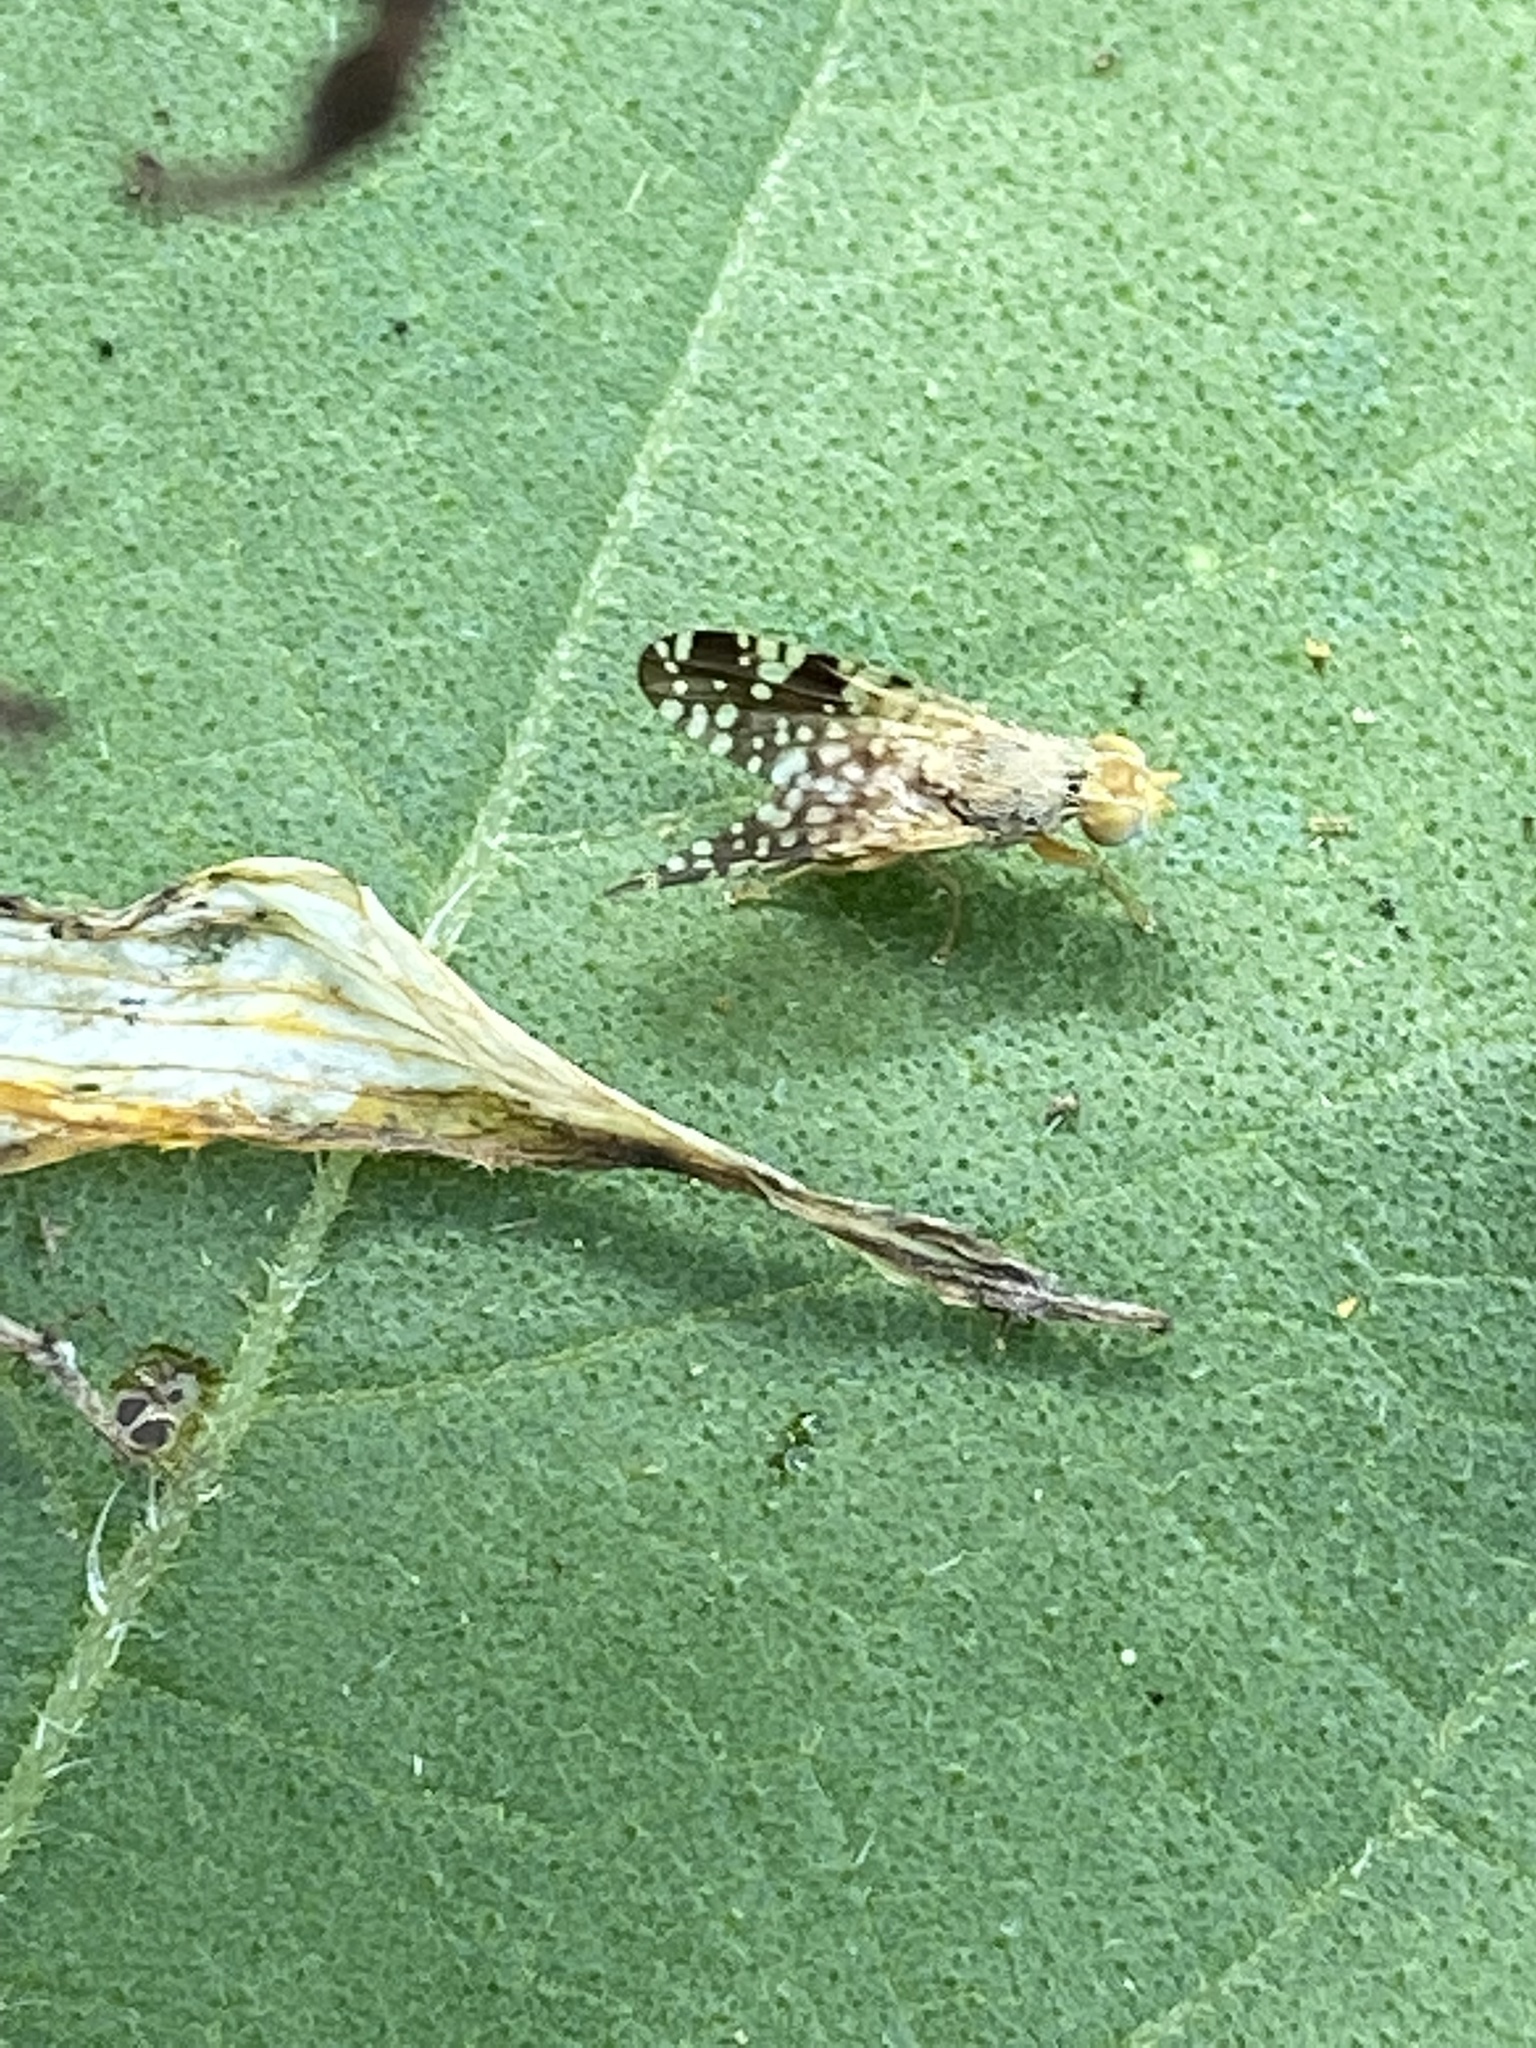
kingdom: Animalia
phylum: Arthropoda
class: Insecta
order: Diptera
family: Tephritidae
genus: Neotephritis
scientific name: Neotephritis finalis
